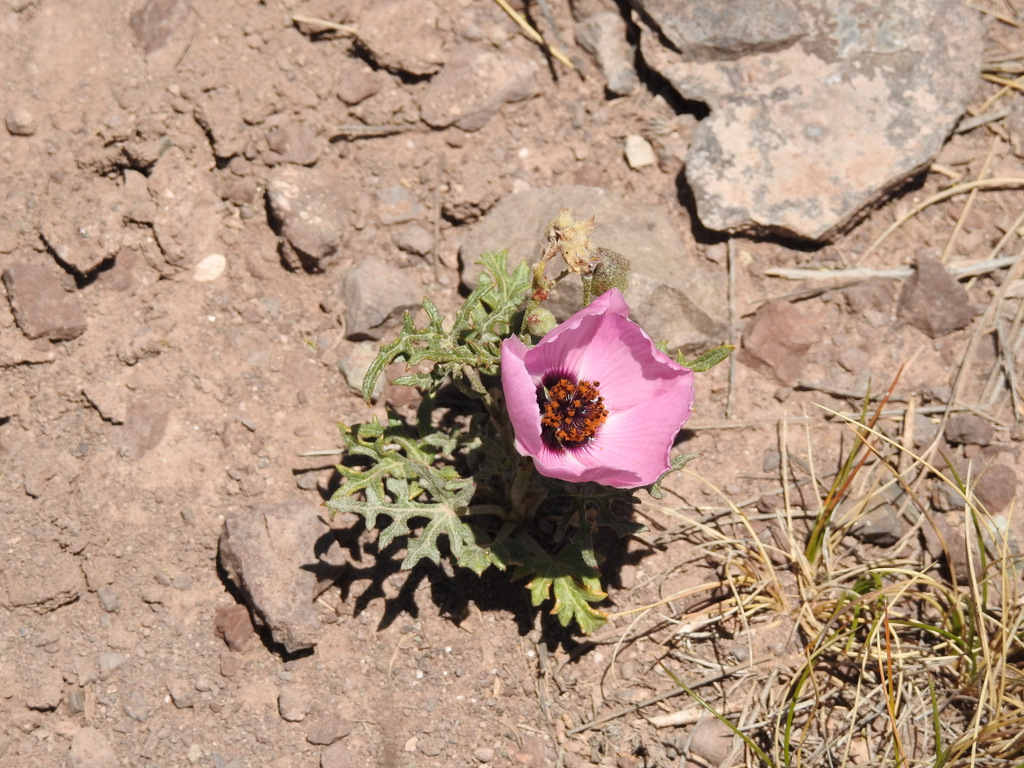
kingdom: Plantae
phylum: Tracheophyta
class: Magnoliopsida
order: Malvales
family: Malvaceae
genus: Lecanophora
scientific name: Lecanophora heterophylla
